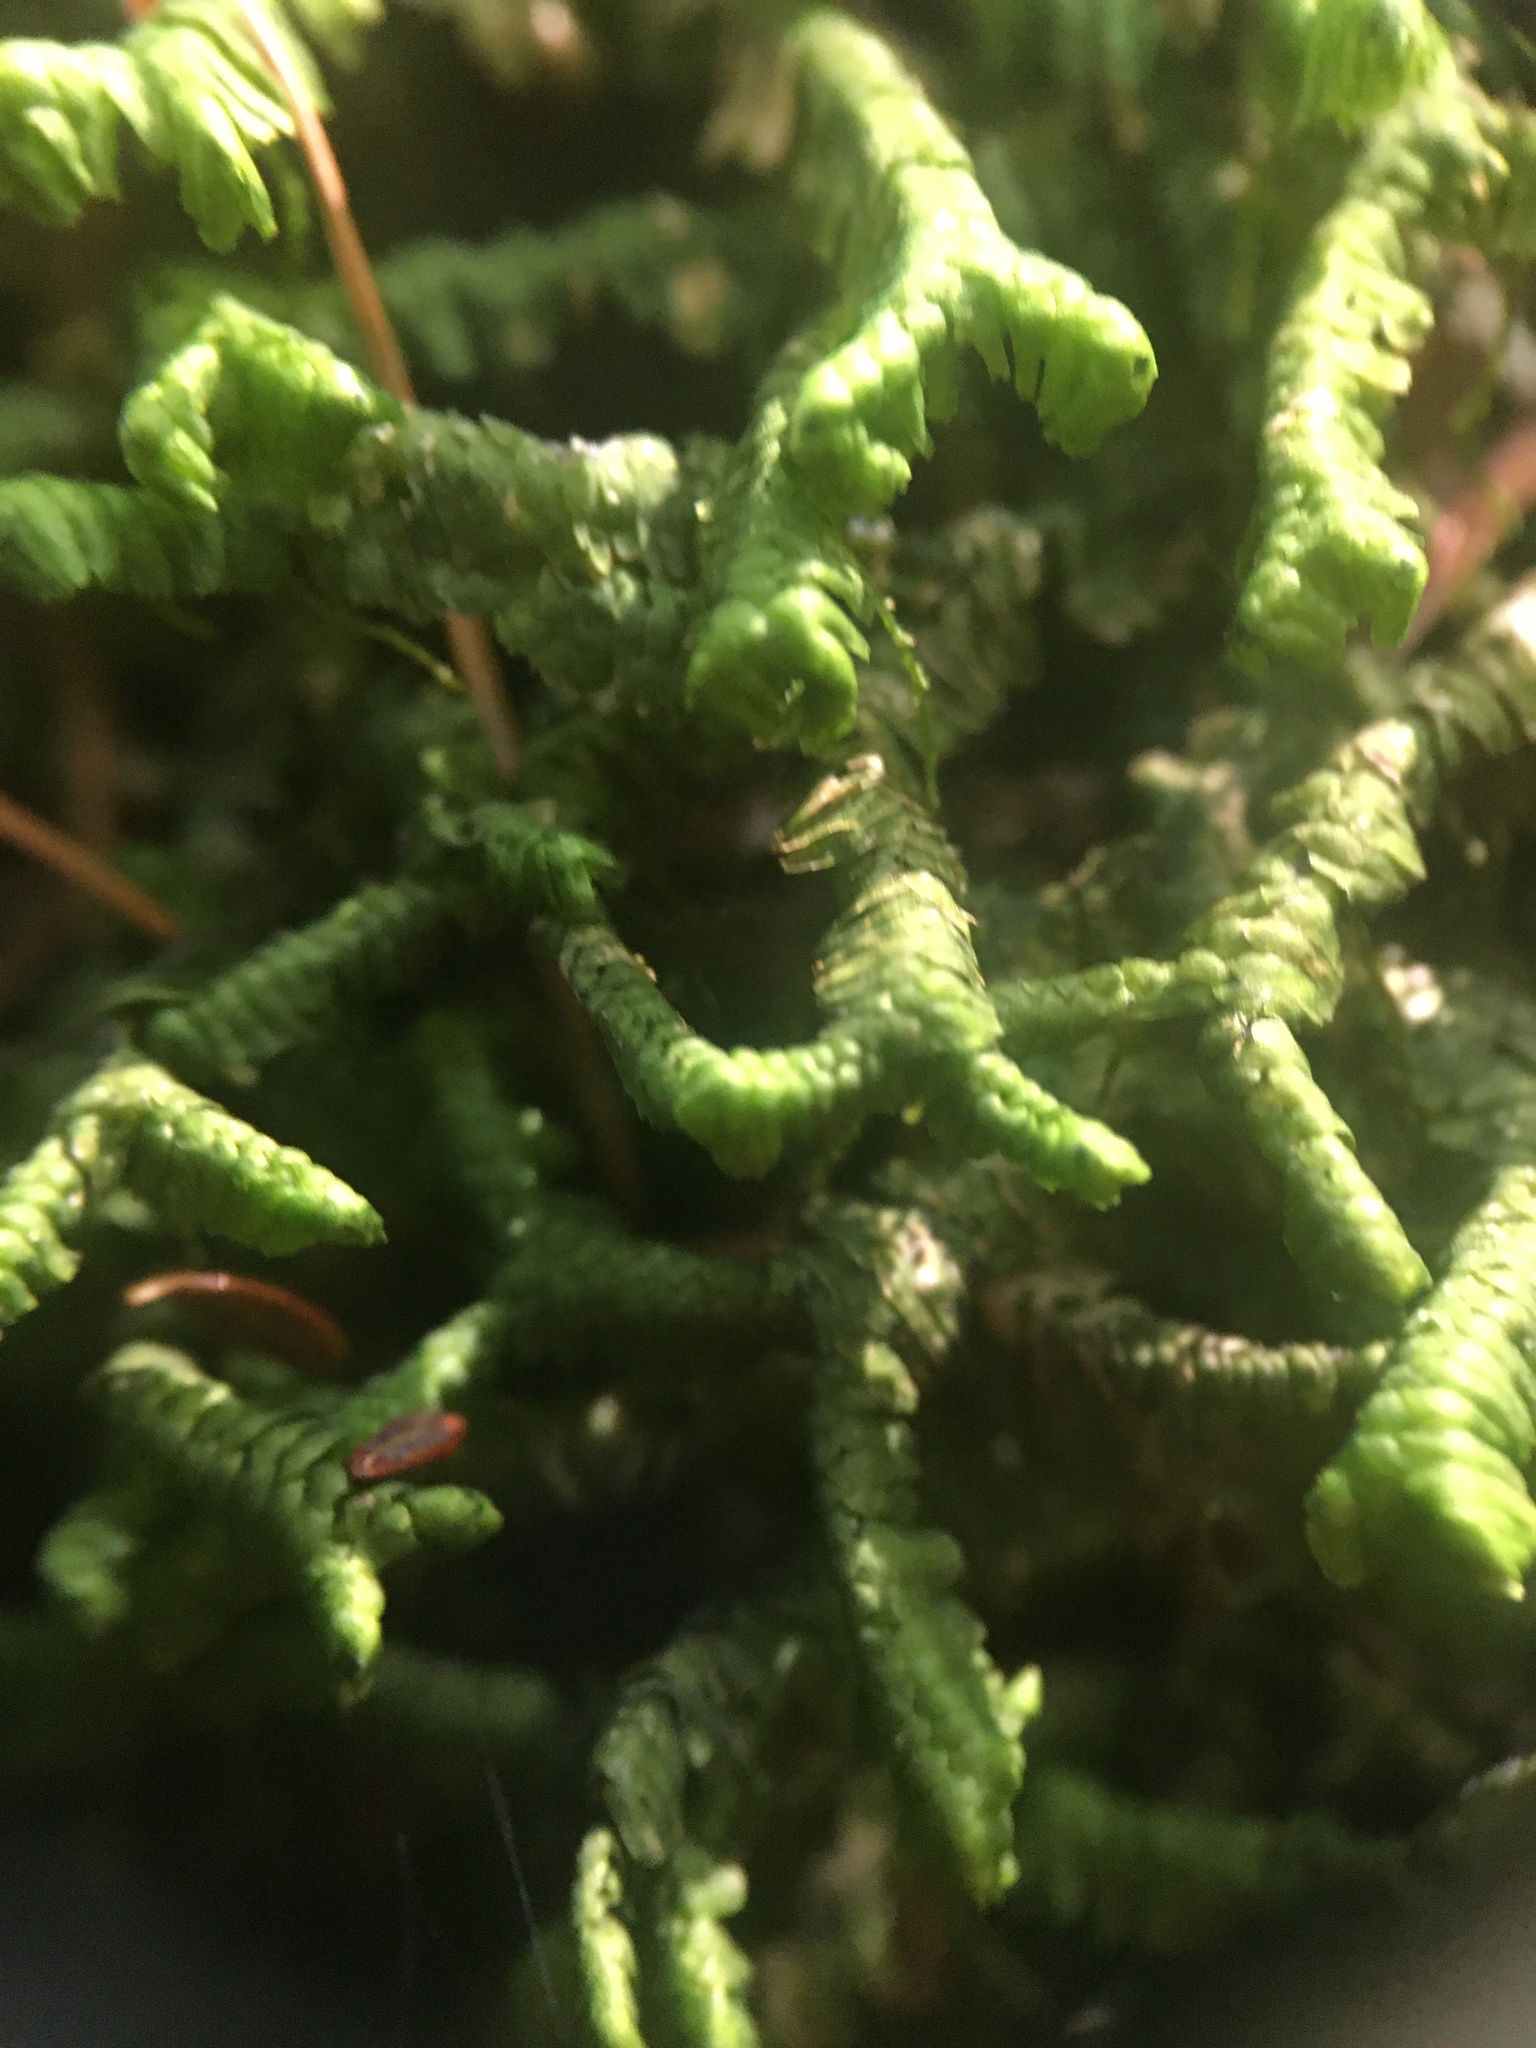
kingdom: Plantae
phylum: Marchantiophyta
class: Jungermanniopsida
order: Jungermanniales
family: Lepidoziaceae
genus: Bazzania
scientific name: Bazzania trilobata
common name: Three-lobed whipwort
